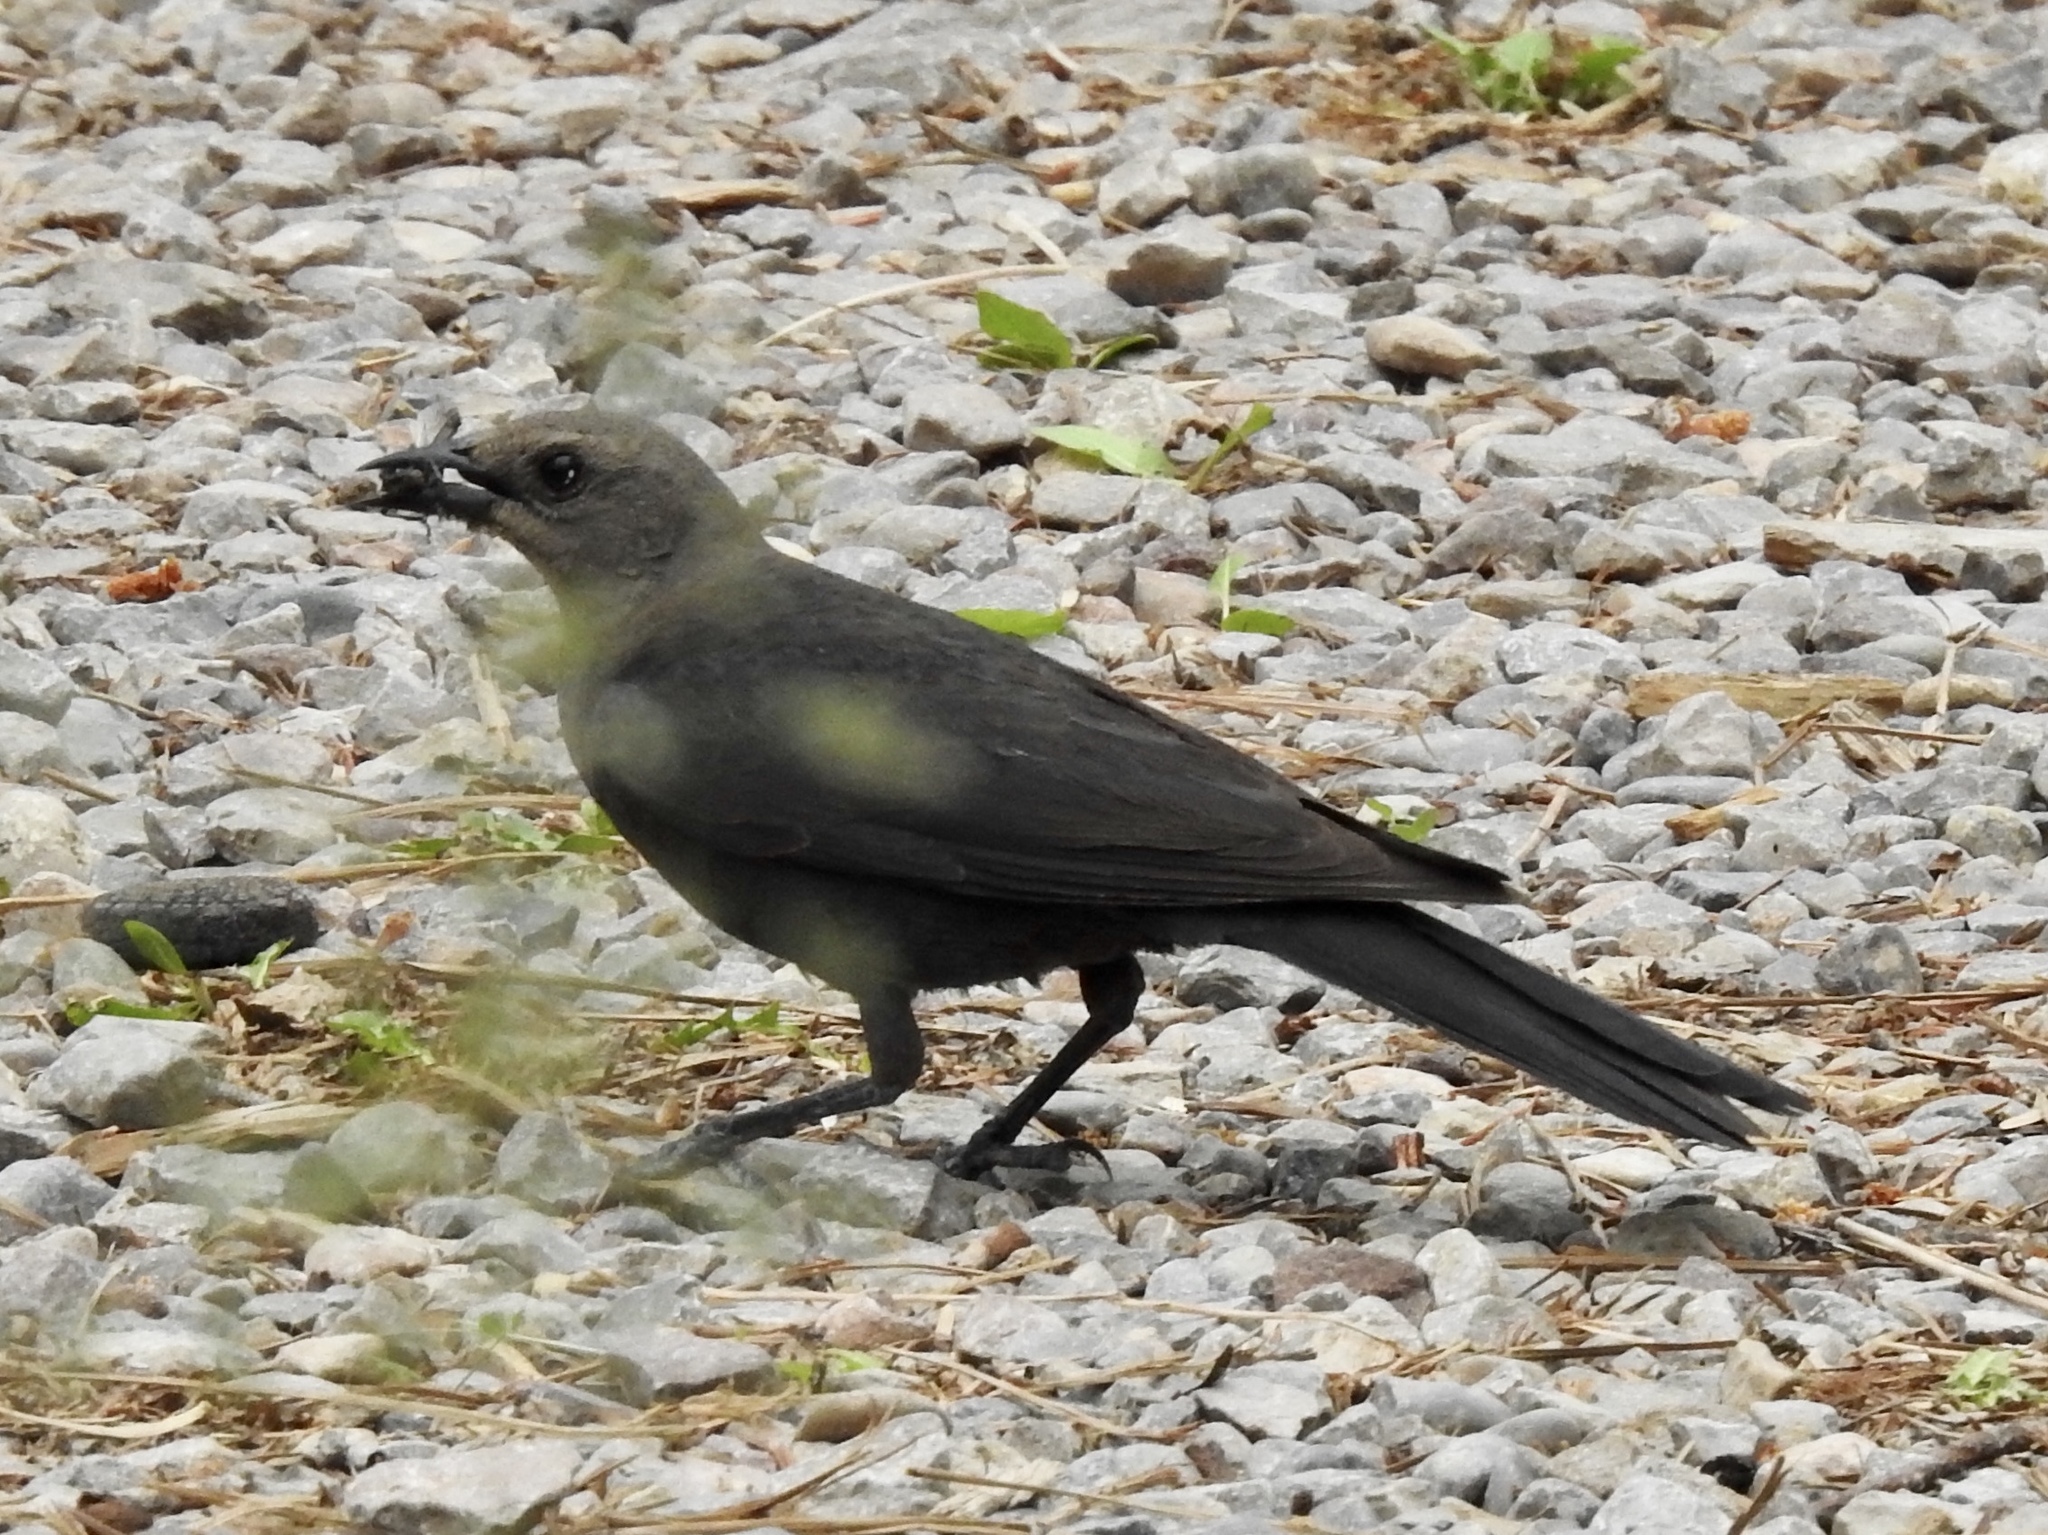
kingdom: Animalia
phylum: Chordata
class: Aves
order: Passeriformes
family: Icteridae
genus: Euphagus
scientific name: Euphagus cyanocephalus
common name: Brewer's blackbird
